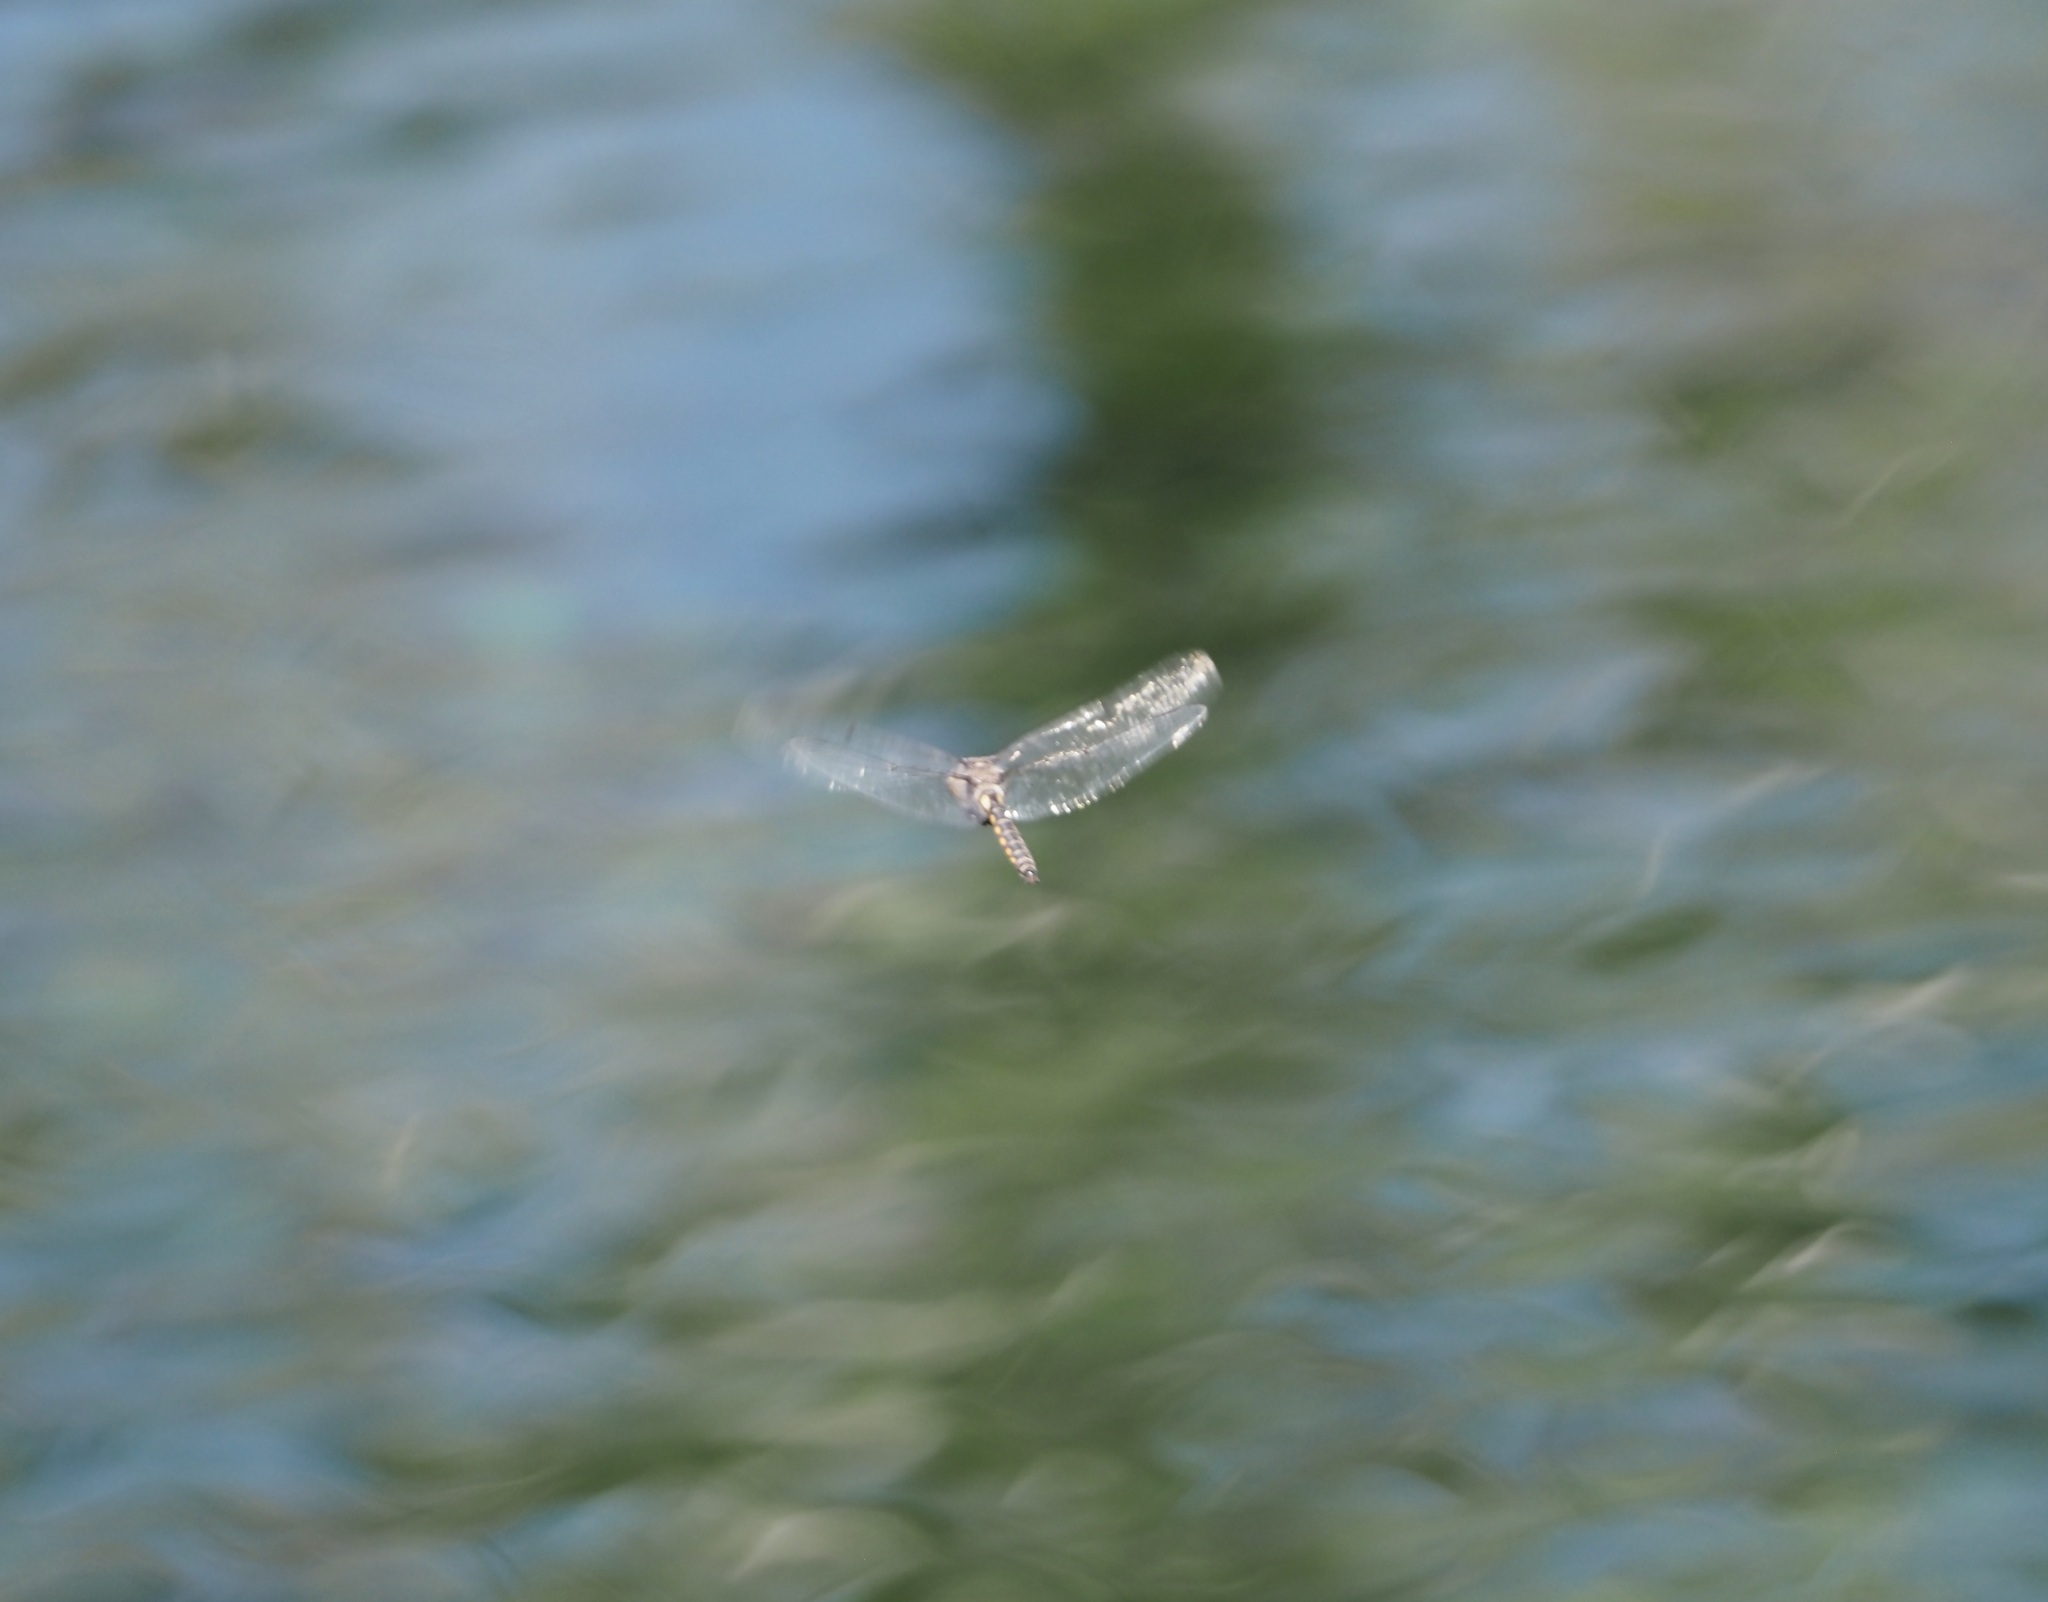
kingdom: Animalia
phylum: Arthropoda
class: Insecta
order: Odonata
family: Corduliidae
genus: Epitheca
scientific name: Epitheca petechialis
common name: Dot-winged baskettail
